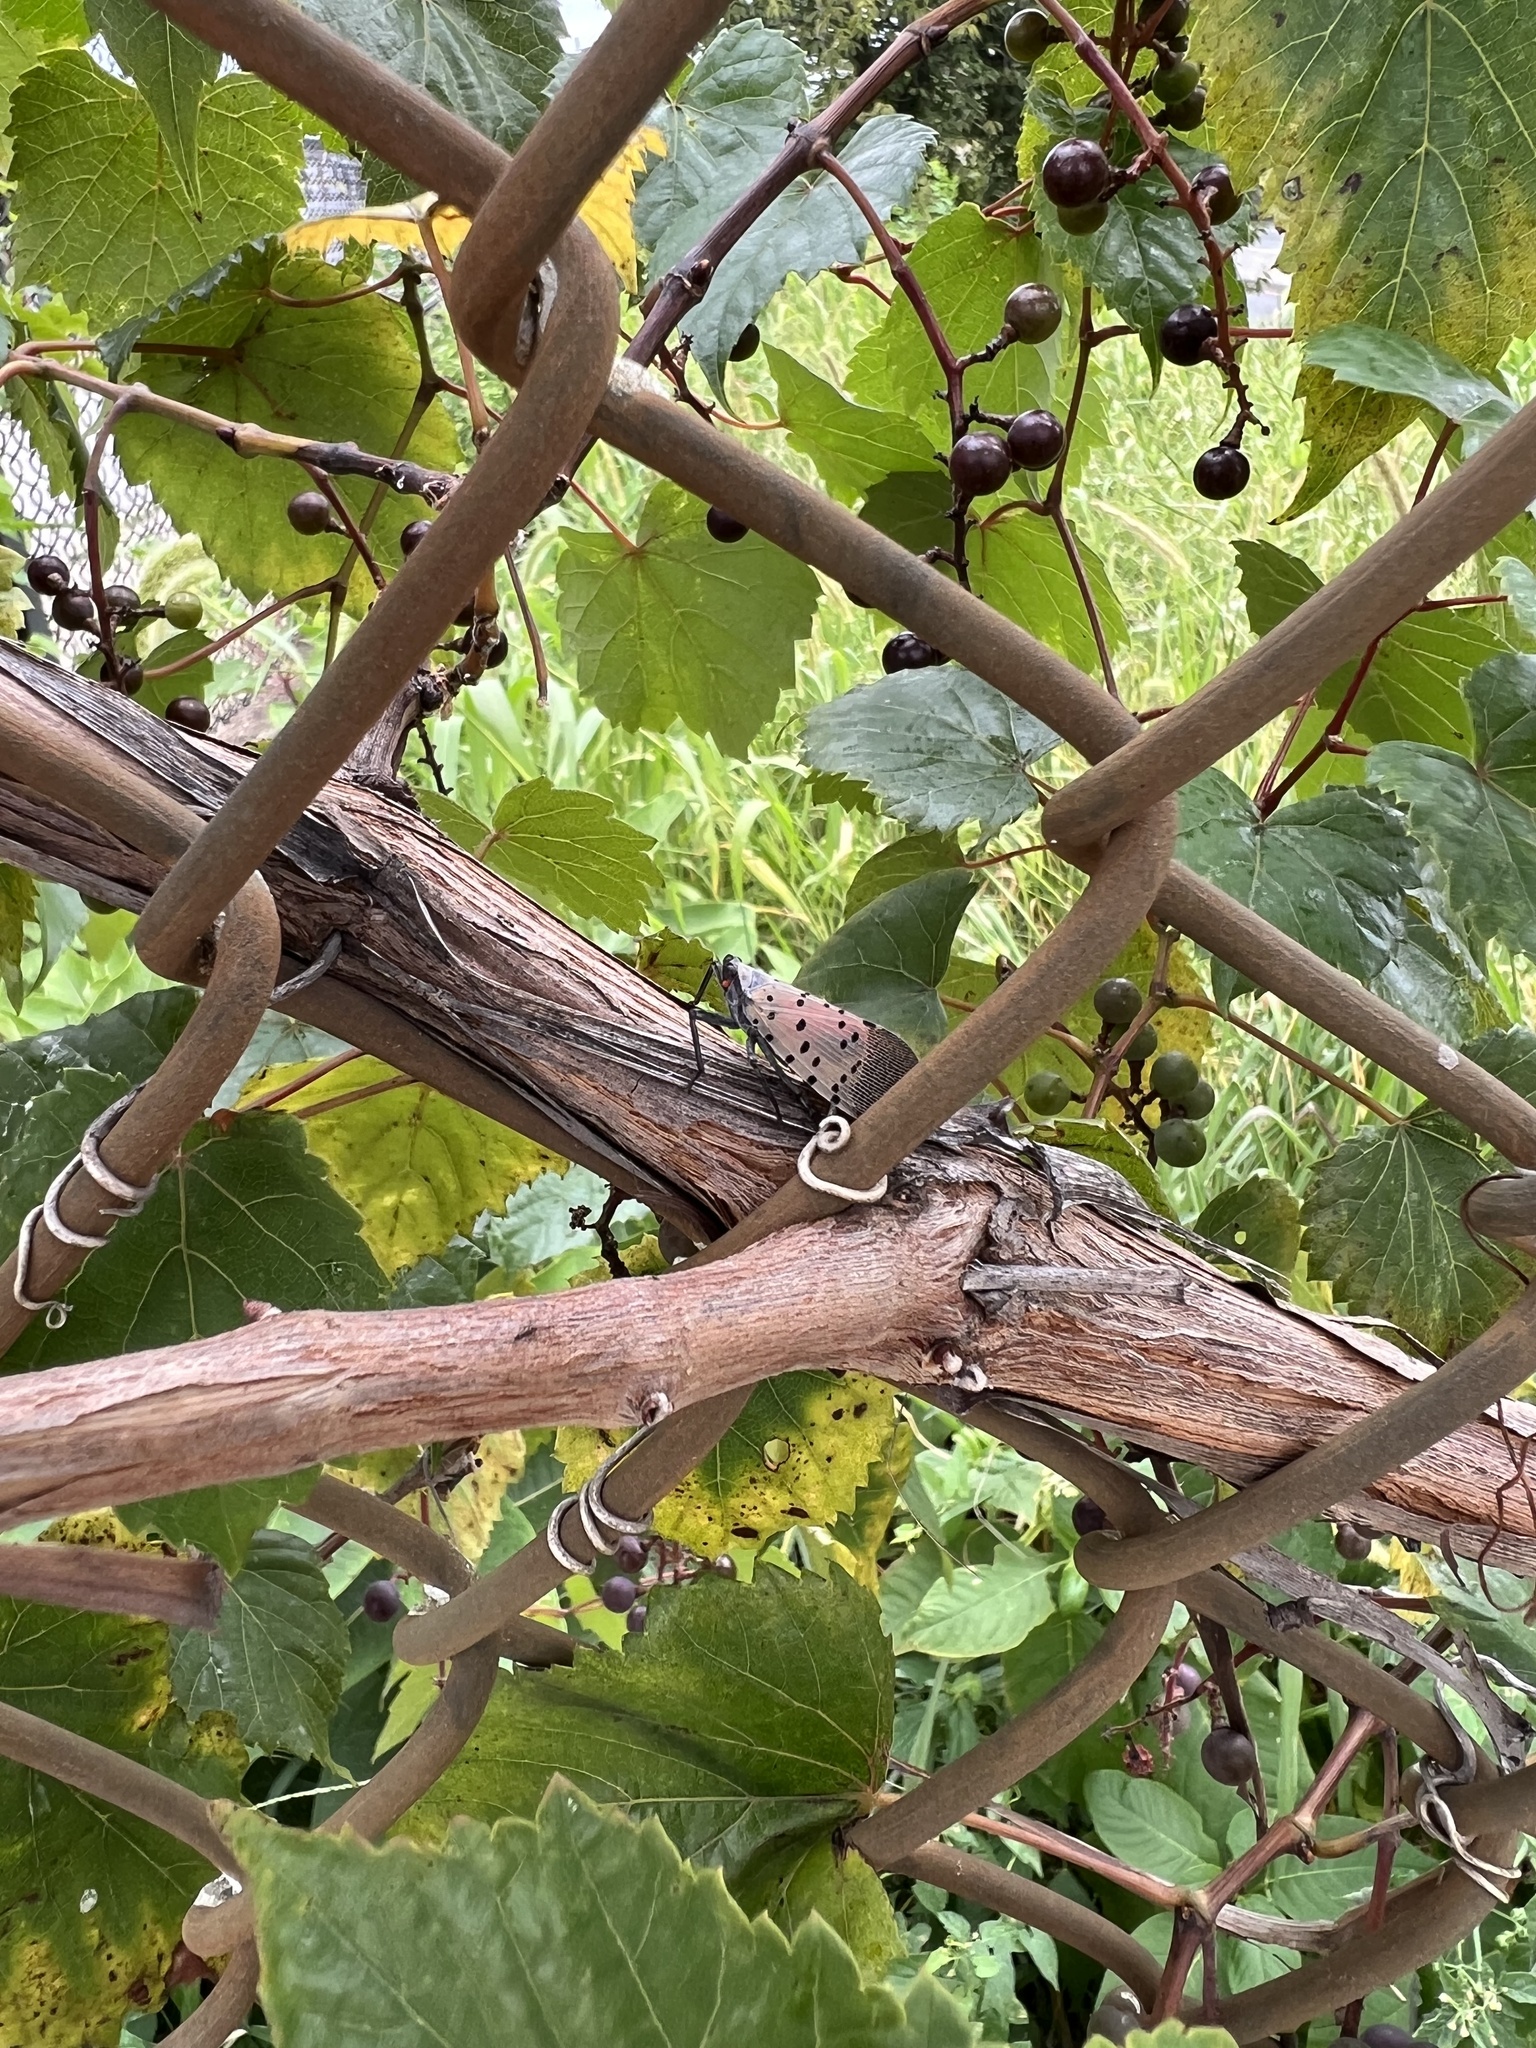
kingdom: Animalia
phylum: Arthropoda
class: Insecta
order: Hemiptera
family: Fulgoridae
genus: Lycorma
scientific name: Lycorma delicatula
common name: Spotted lanternfly
